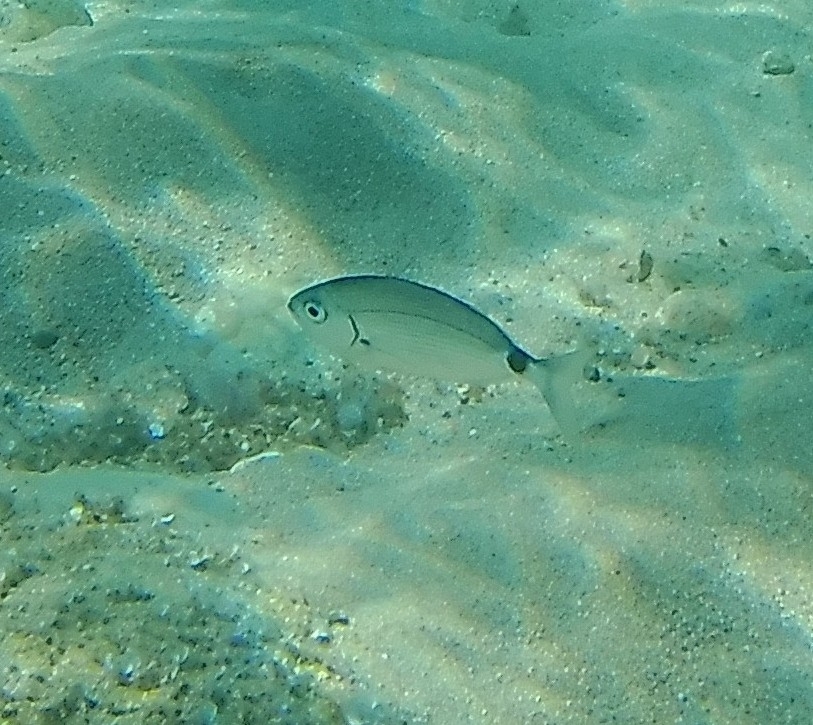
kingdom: Animalia
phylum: Chordata
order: Perciformes
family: Sparidae
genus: Oblada
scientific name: Oblada melanura
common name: Saddled seabream
